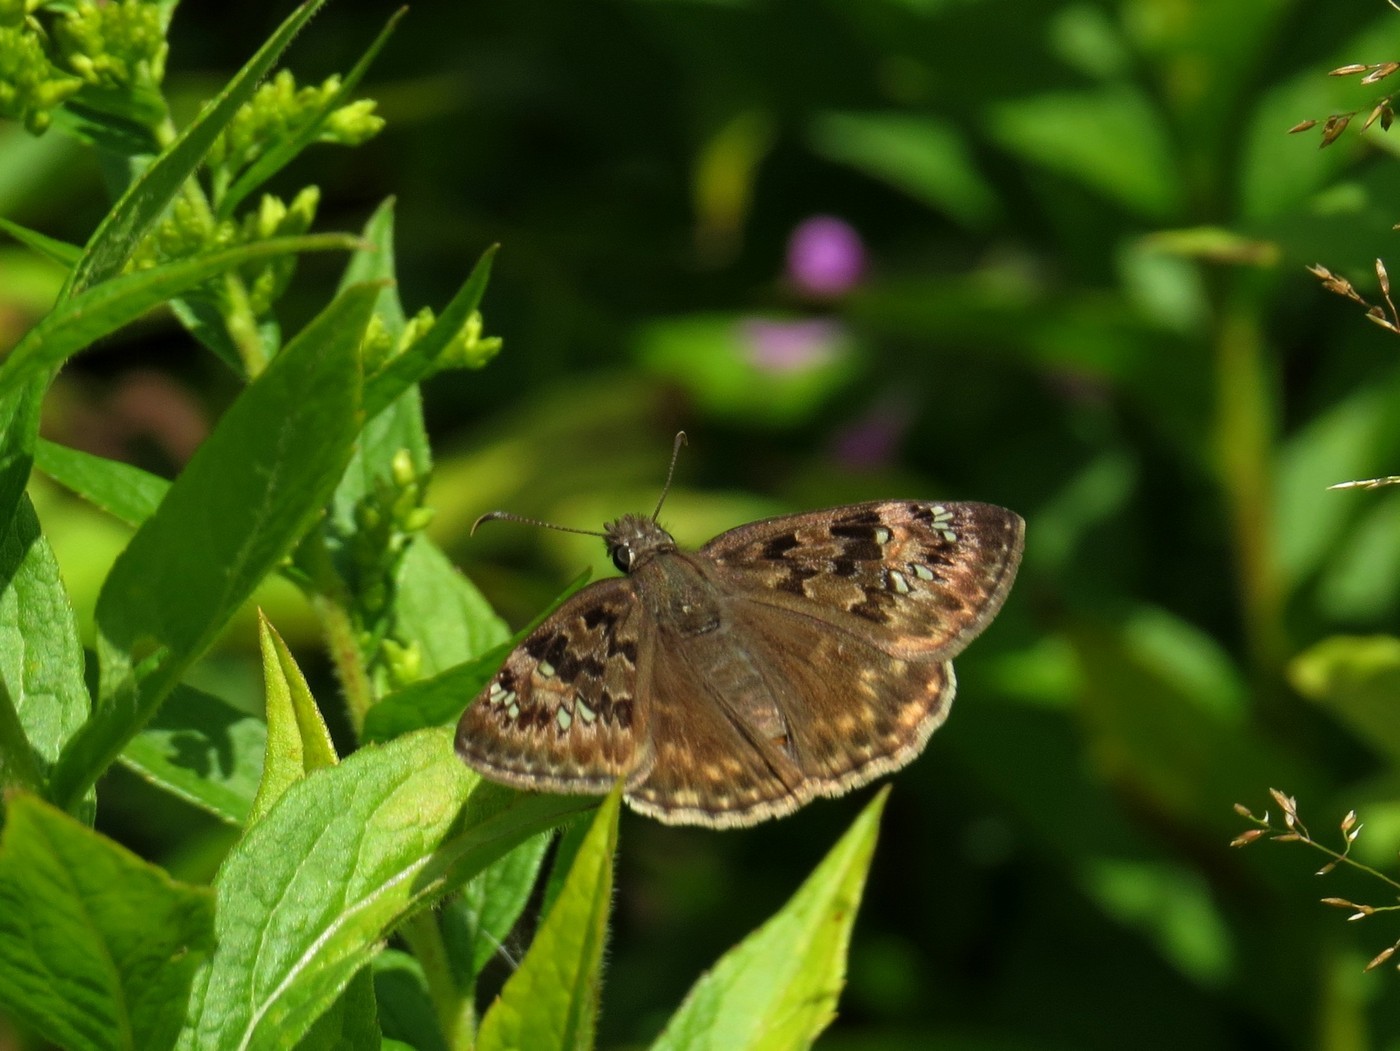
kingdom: Animalia
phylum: Arthropoda
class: Insecta
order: Lepidoptera
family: Hesperiidae
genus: Erynnis
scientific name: Erynnis horatius
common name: Horace's duskywing
